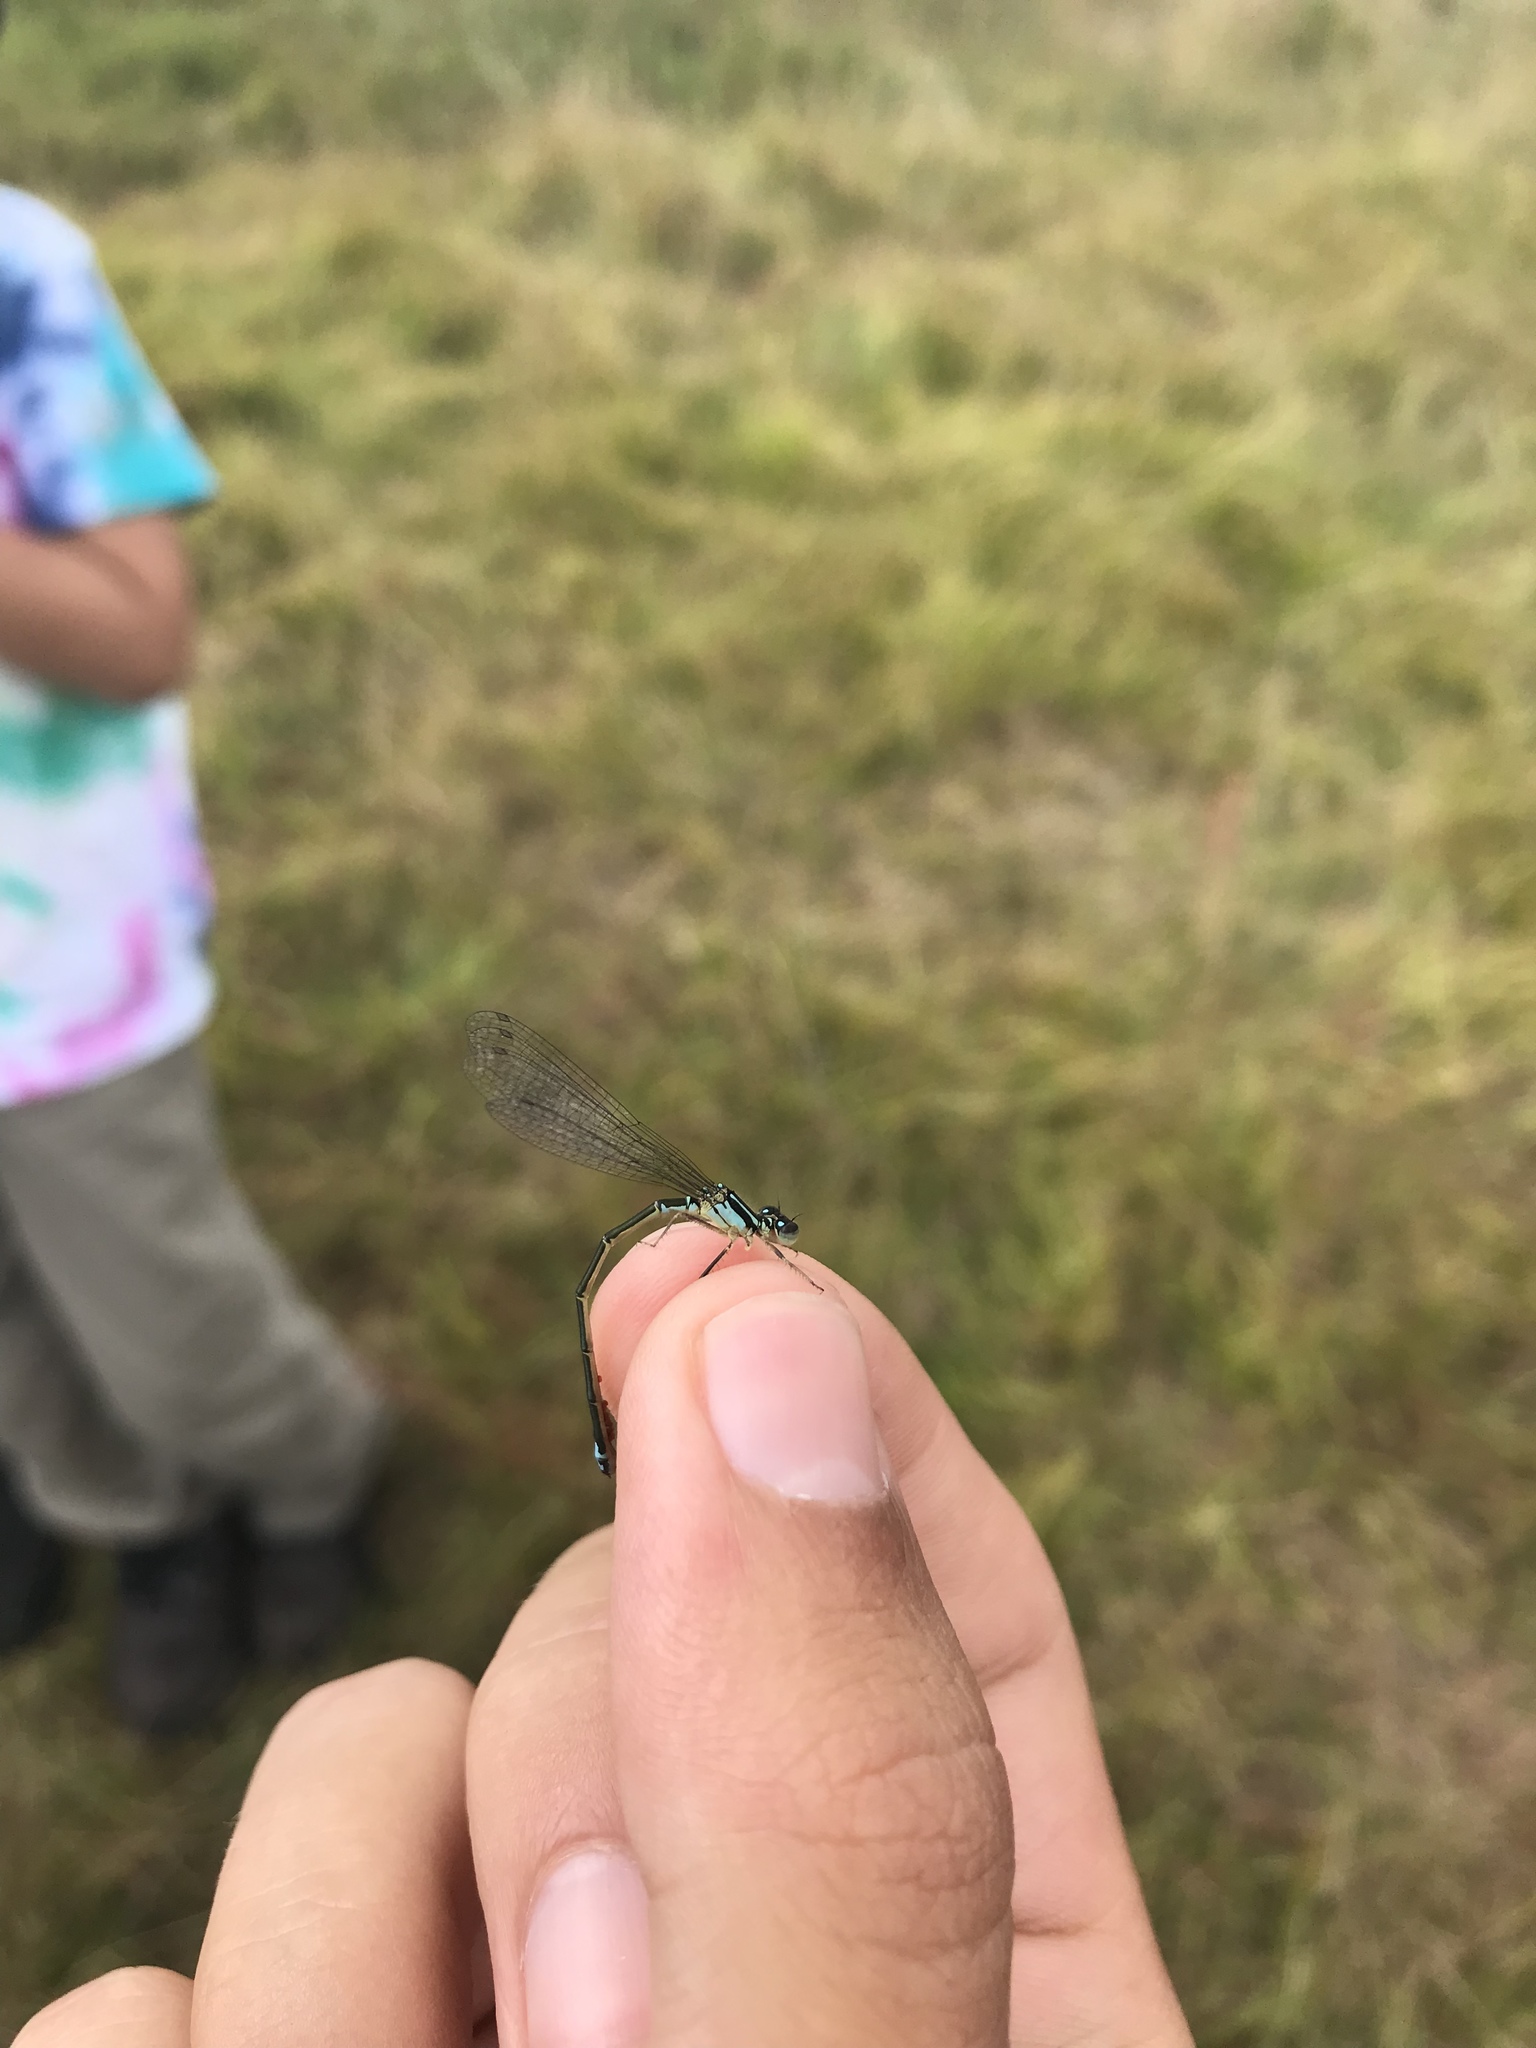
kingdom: Animalia
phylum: Arthropoda
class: Insecta
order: Odonata
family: Coenagrionidae
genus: Enallagma
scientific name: Enallagma geminatum
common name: Skimming bluet
